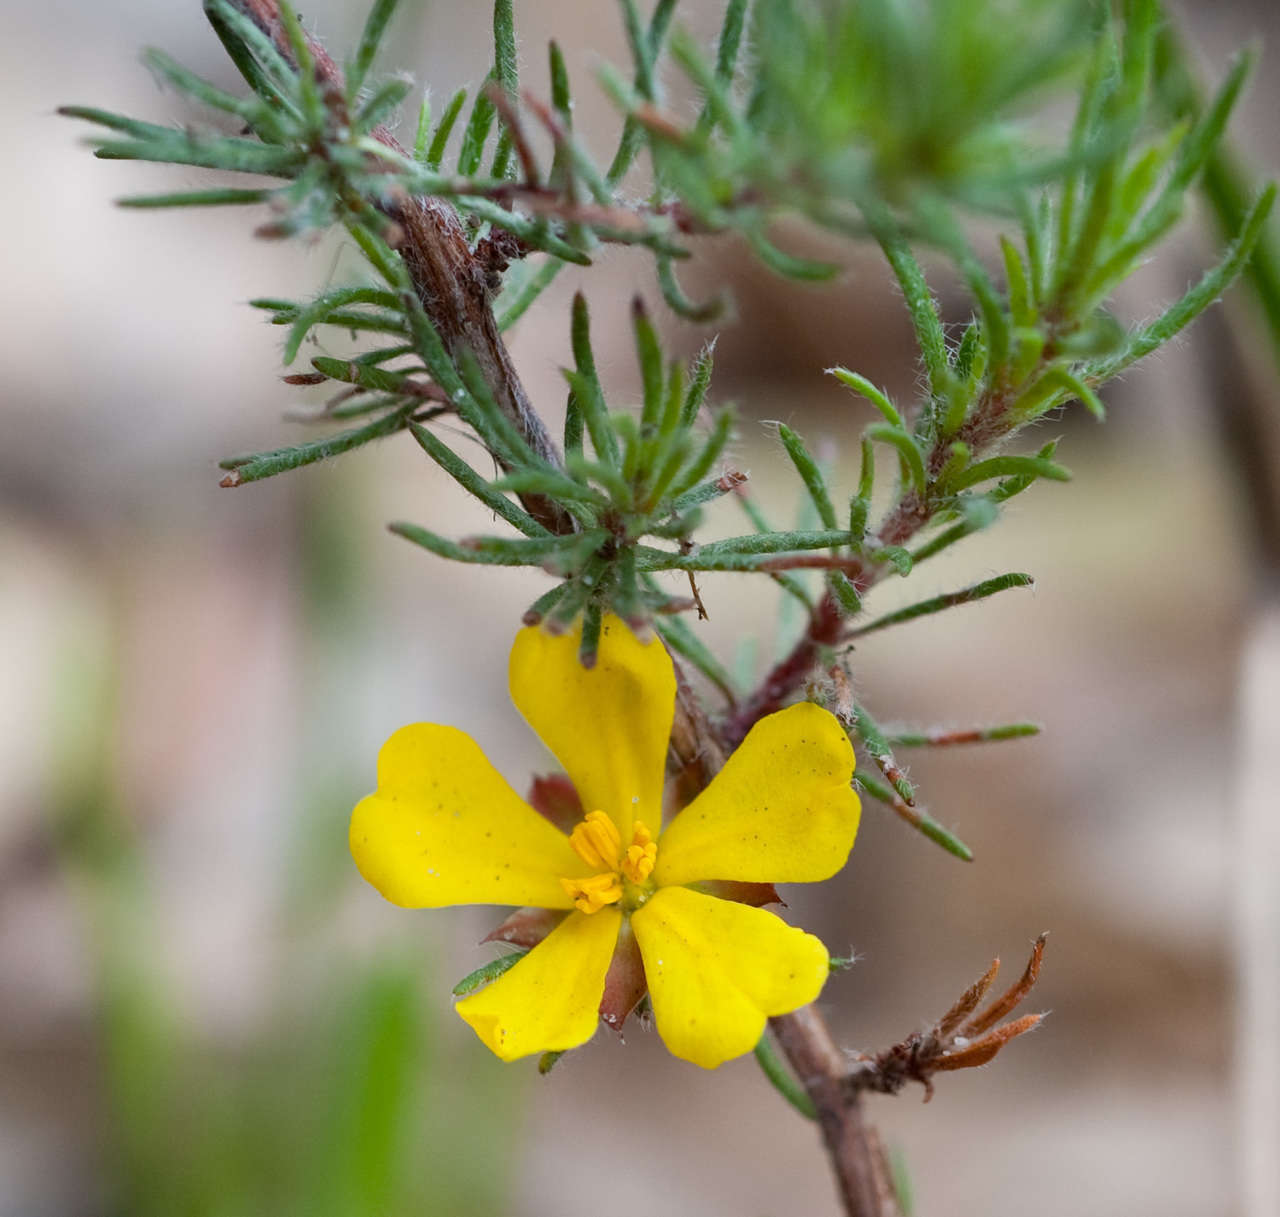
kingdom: Plantae
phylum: Tracheophyta
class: Magnoliopsida
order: Dilleniales
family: Dilleniaceae
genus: Hibbertia
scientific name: Hibbertia prostrata
